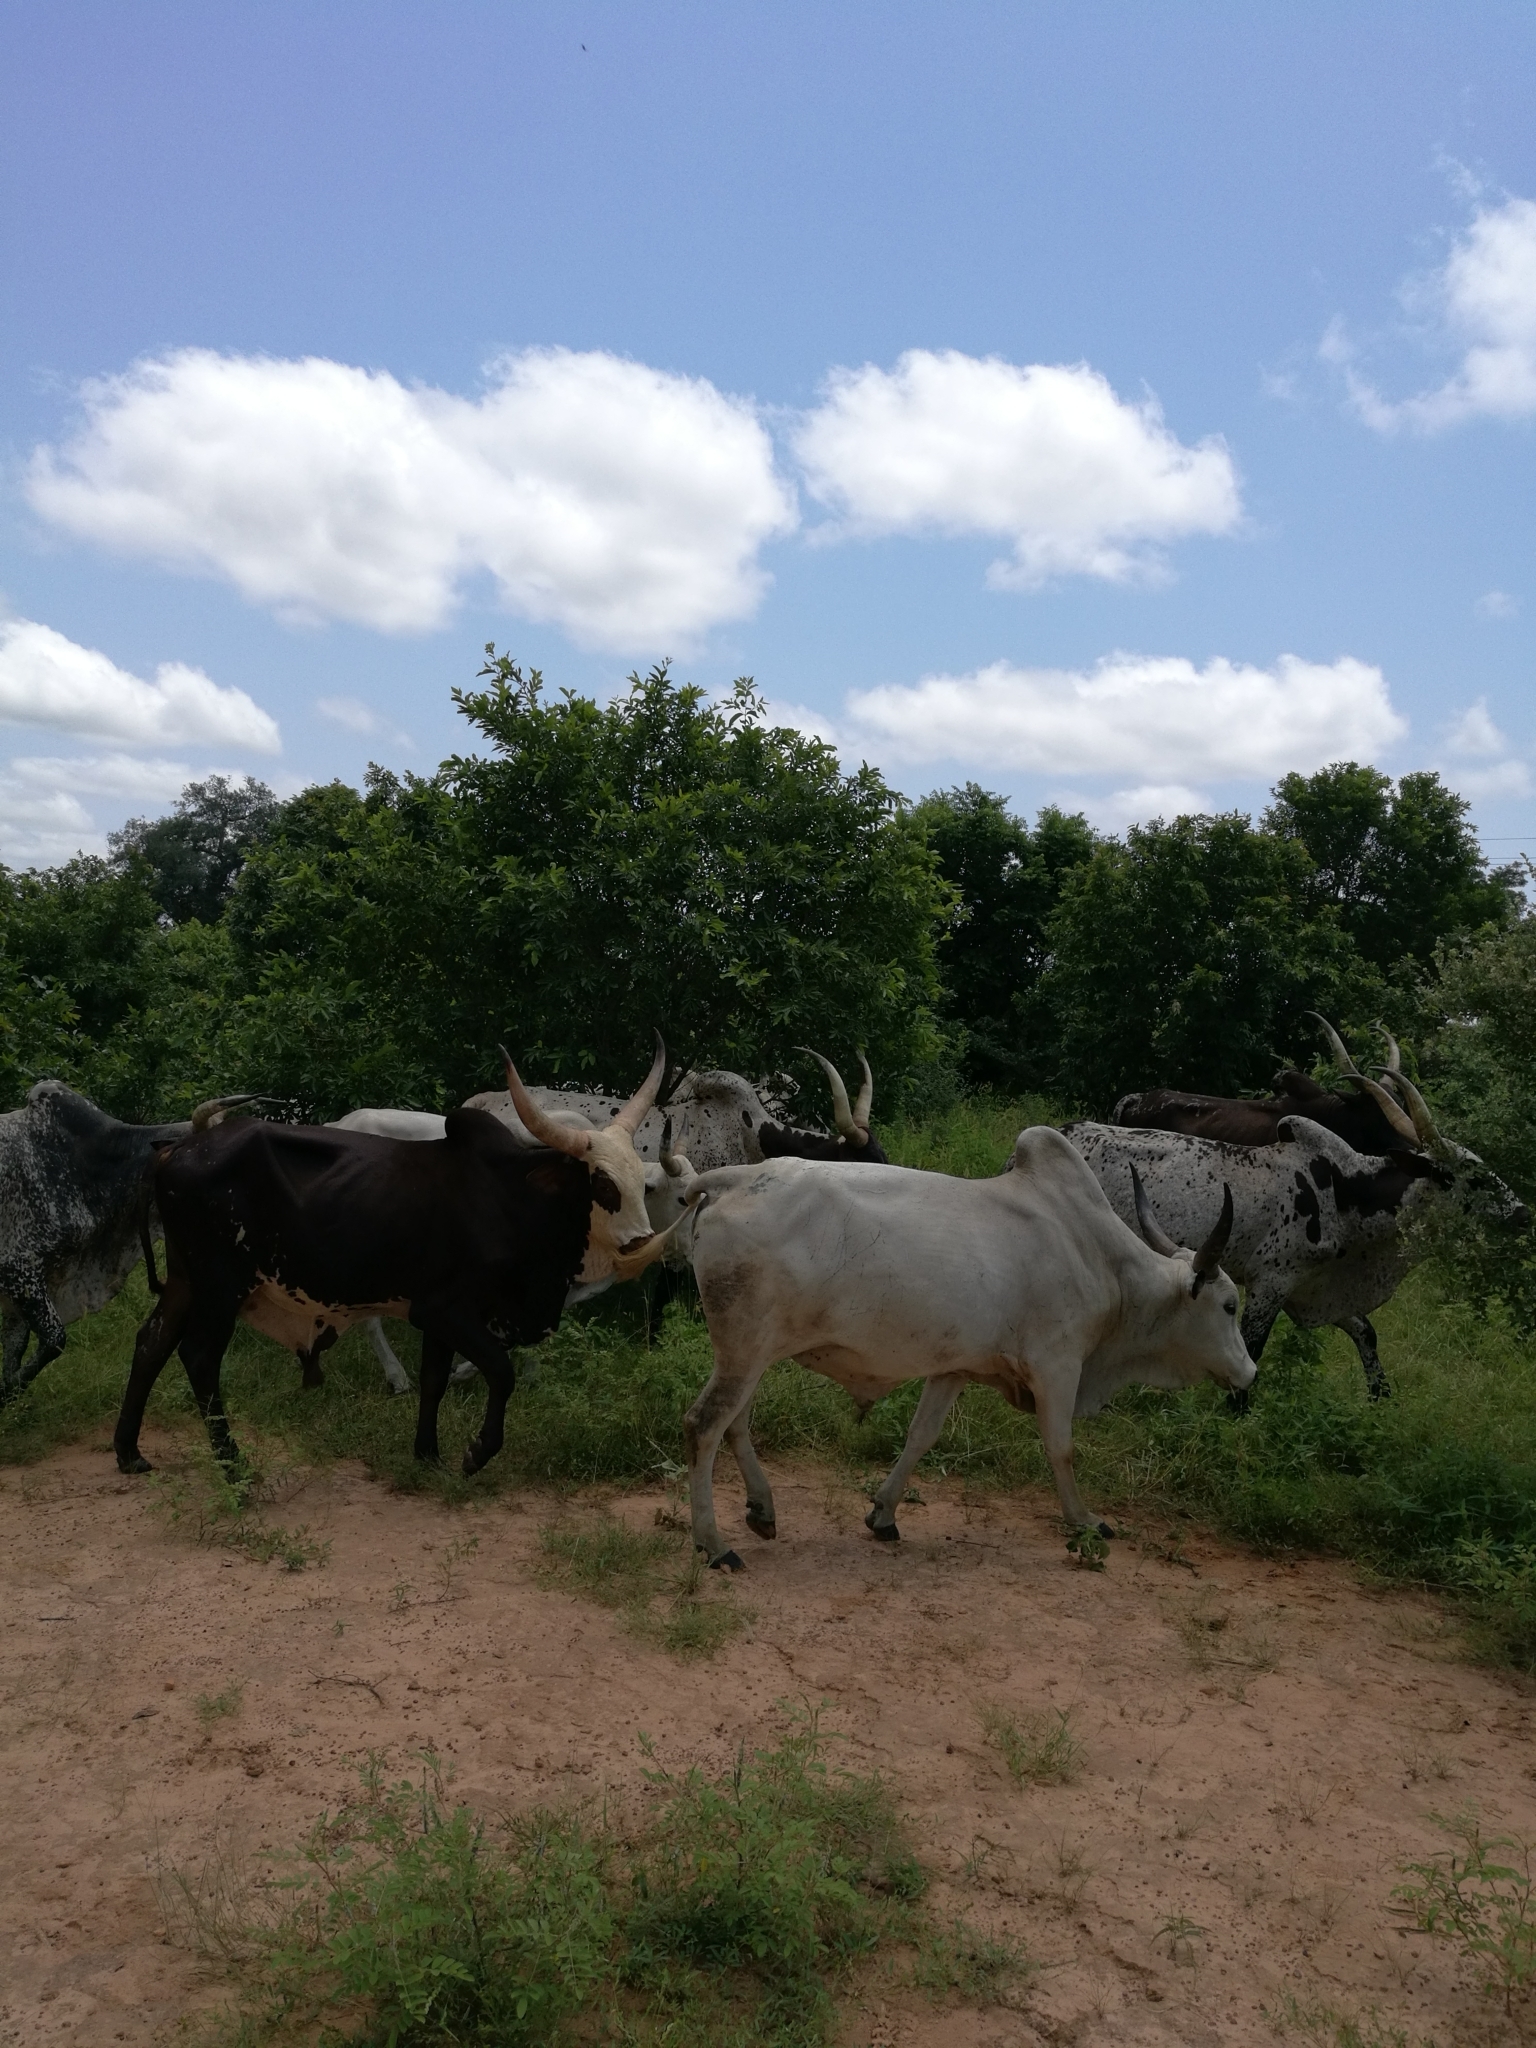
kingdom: Animalia
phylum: Chordata
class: Mammalia
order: Artiodactyla
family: Bovidae
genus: Bos
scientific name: Bos taurus
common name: Domesticated cattle
